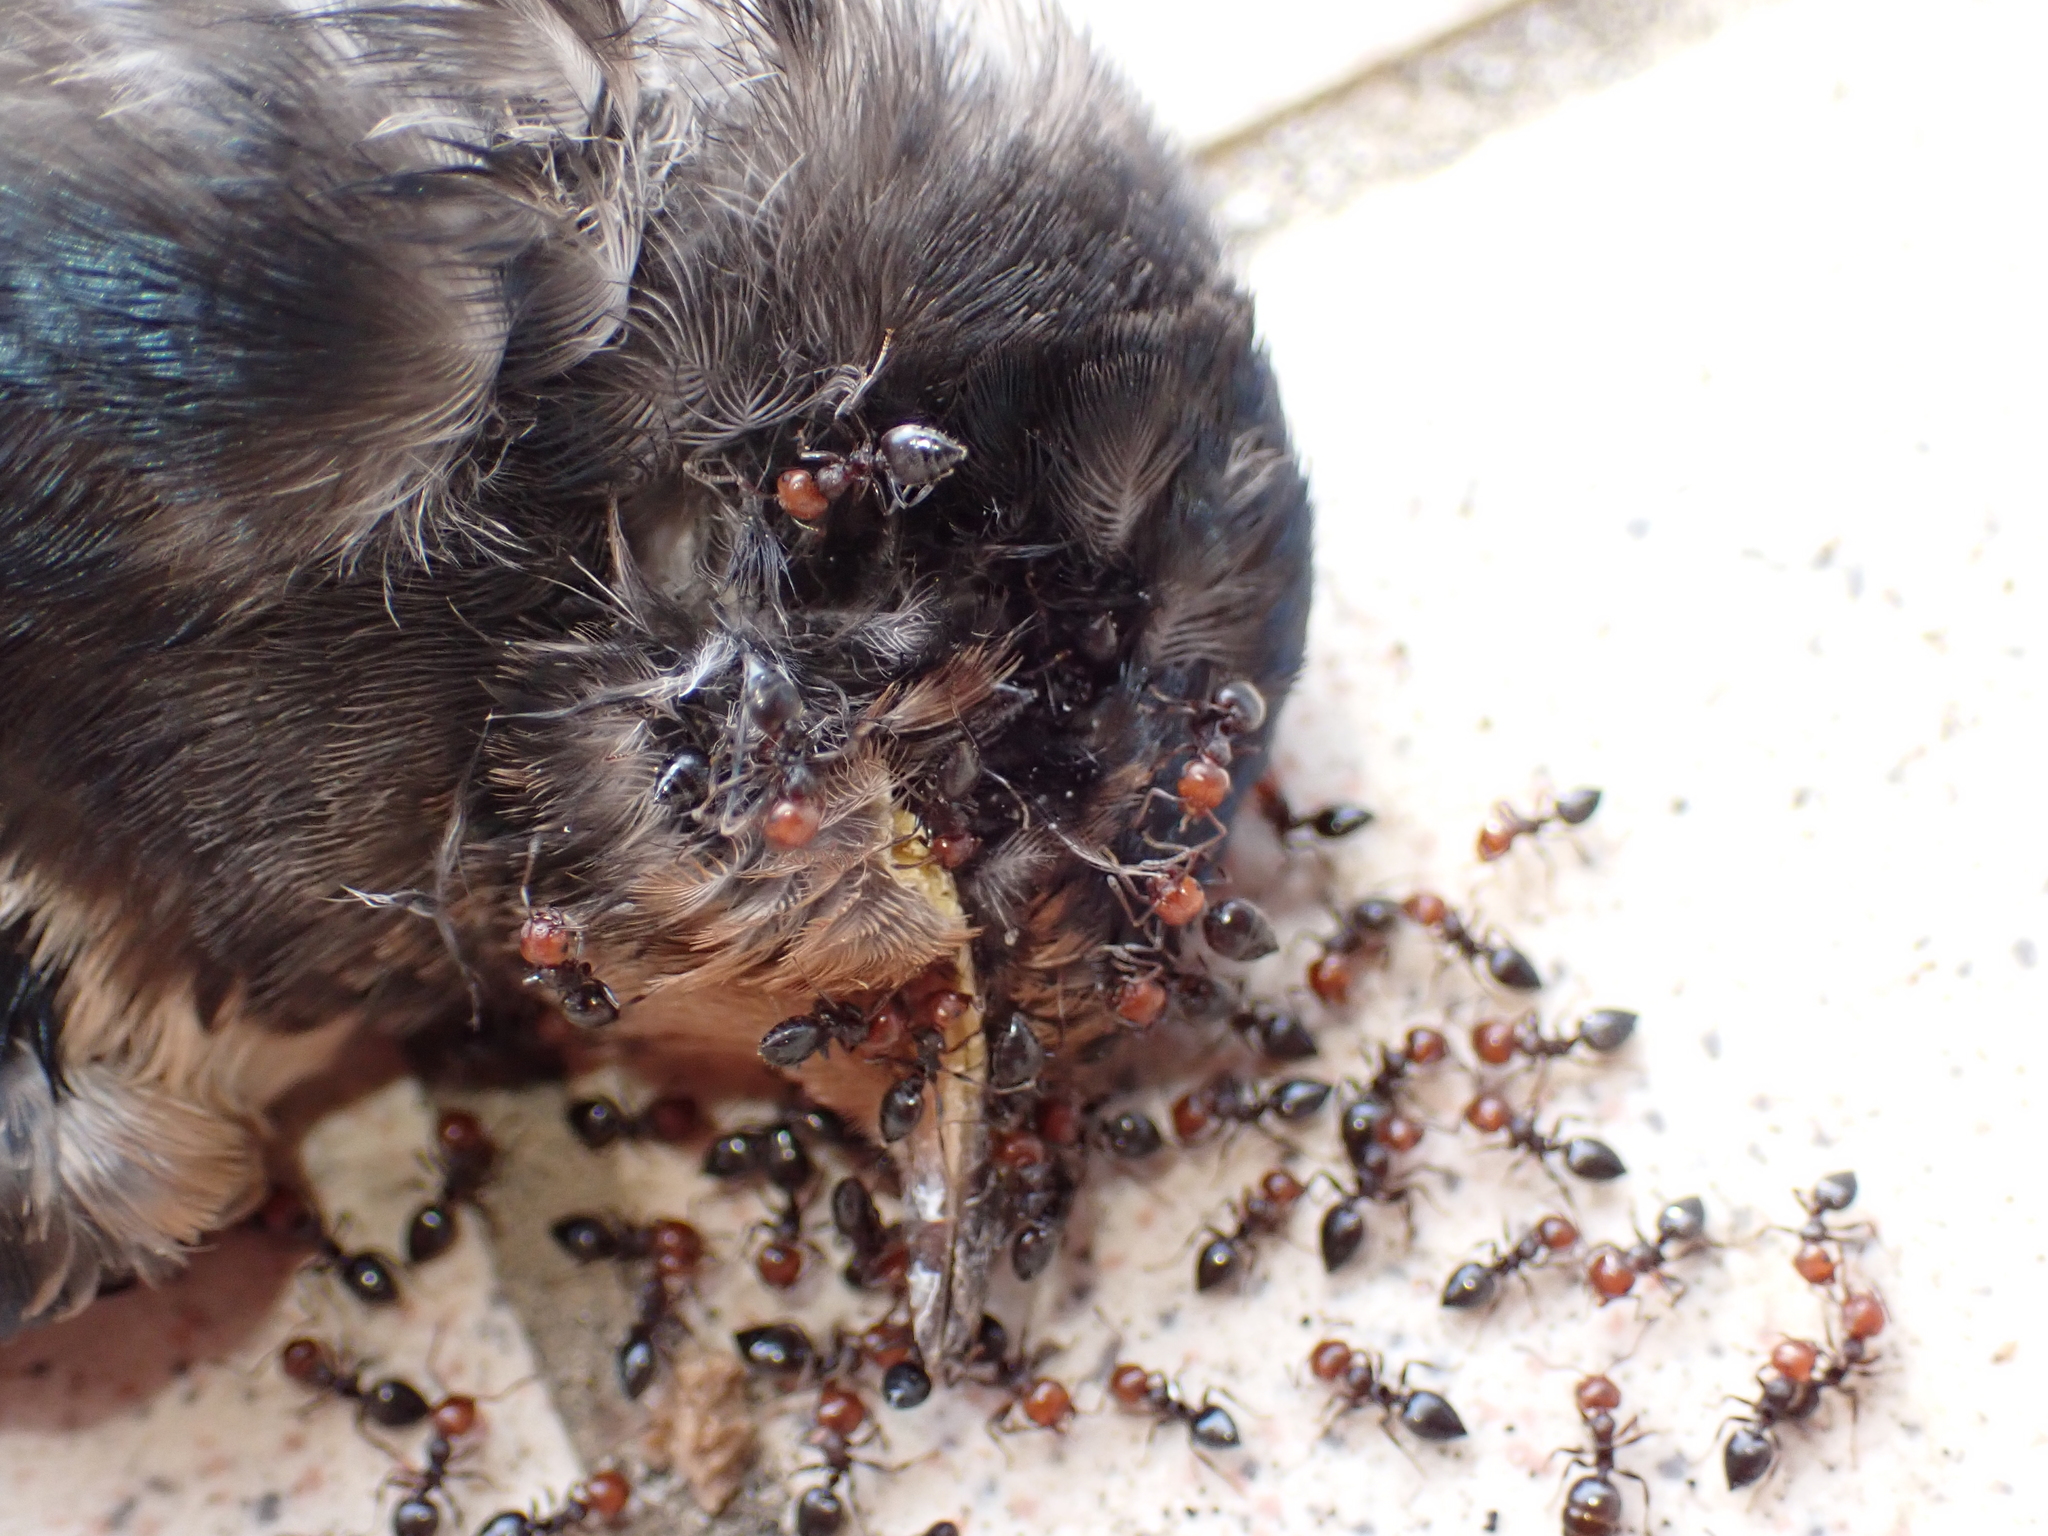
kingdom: Animalia
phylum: Arthropoda
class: Insecta
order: Hymenoptera
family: Formicidae
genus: Crematogaster
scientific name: Crematogaster scutellaris
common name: Fourmi du liège
